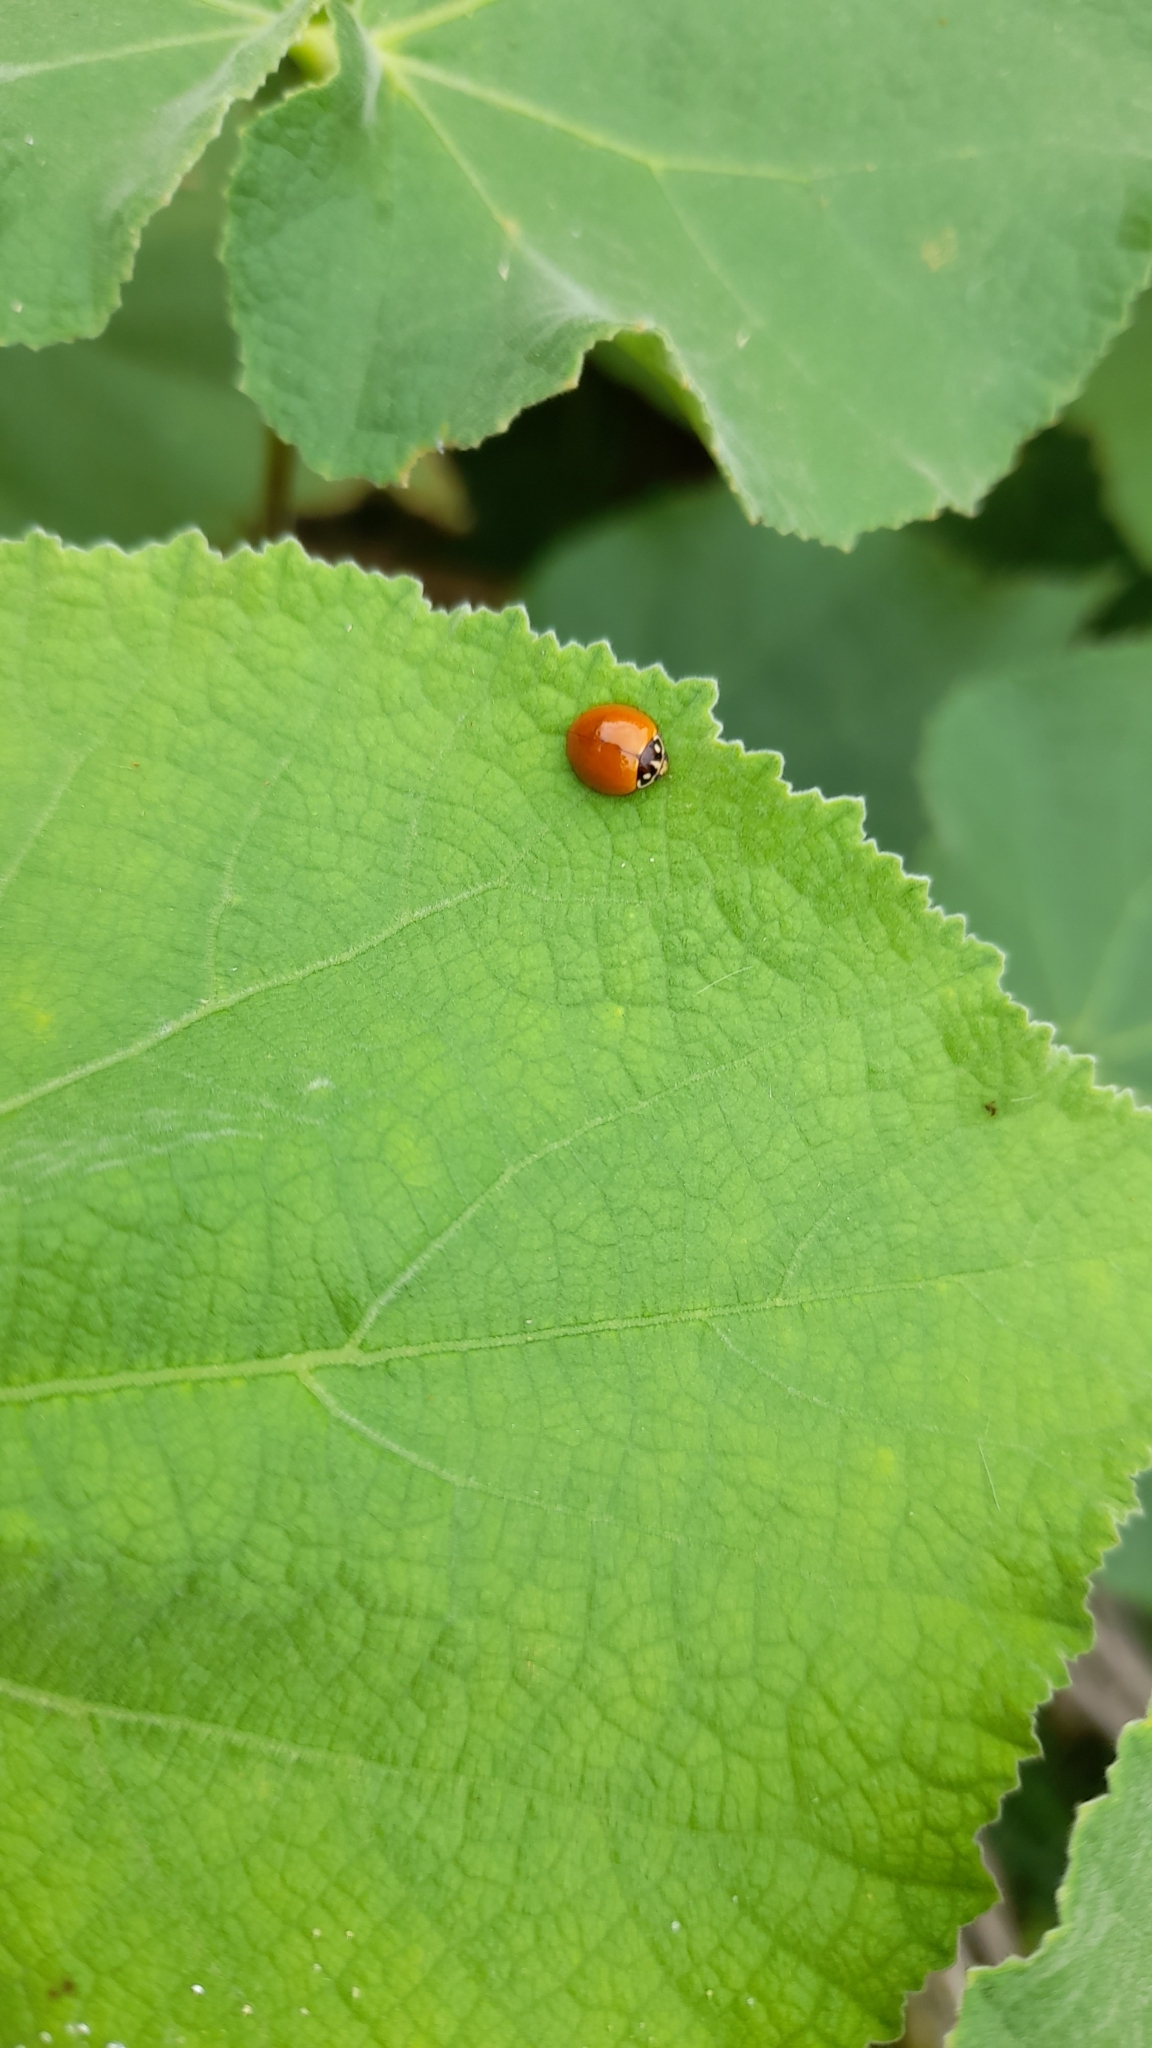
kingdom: Animalia
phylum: Arthropoda
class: Insecta
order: Coleoptera
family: Coccinellidae
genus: Cycloneda
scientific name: Cycloneda sanguinea
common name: Ladybird beetle
